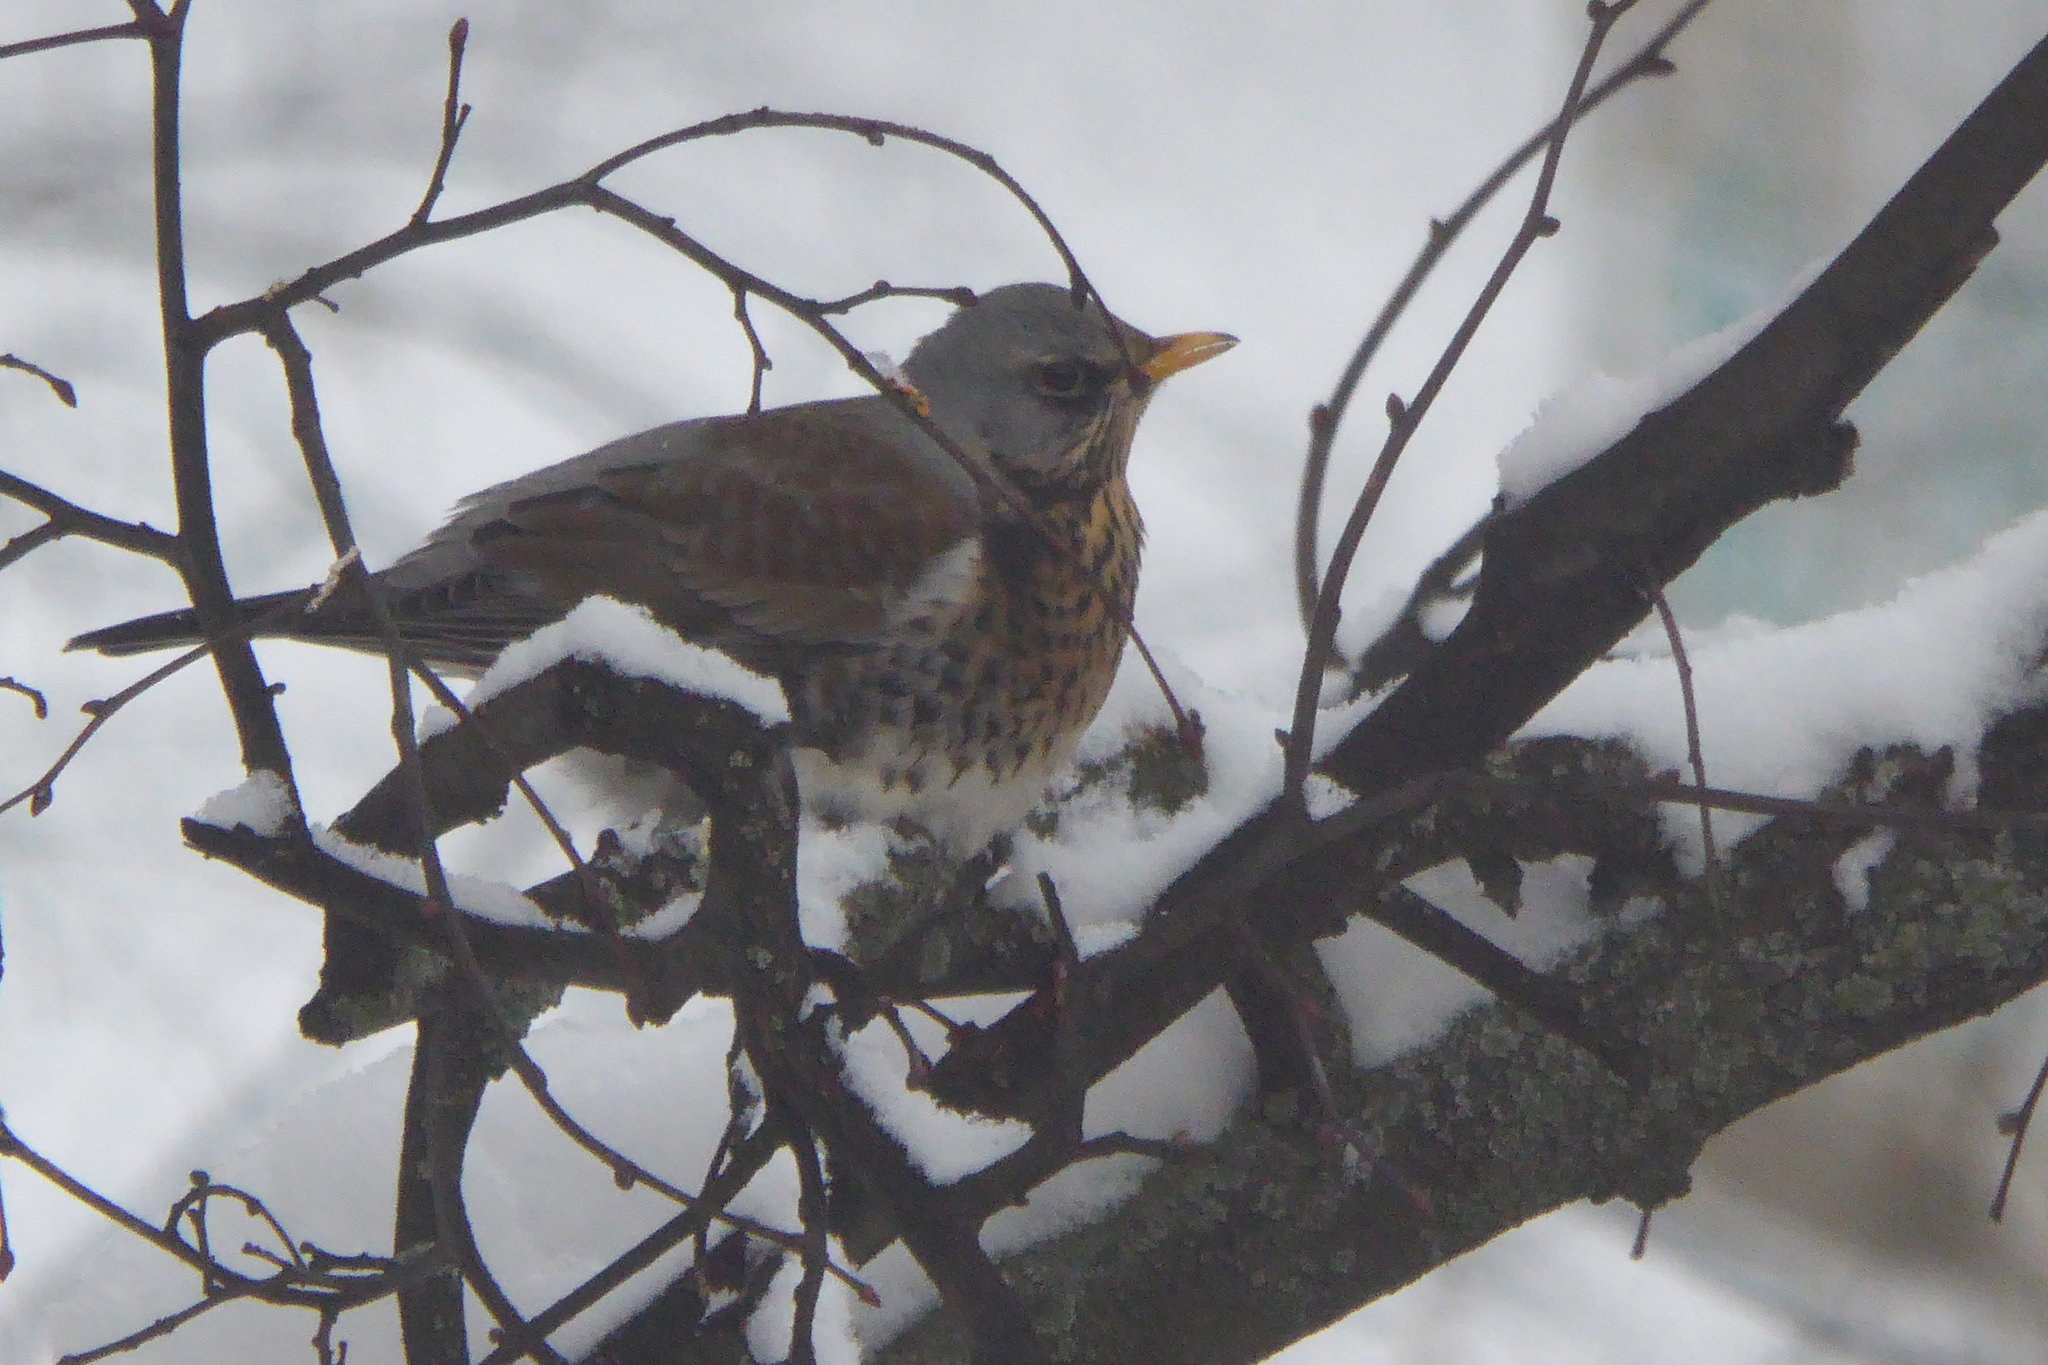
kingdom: Animalia
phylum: Chordata
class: Aves
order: Passeriformes
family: Turdidae
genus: Turdus
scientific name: Turdus pilaris
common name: Fieldfare
